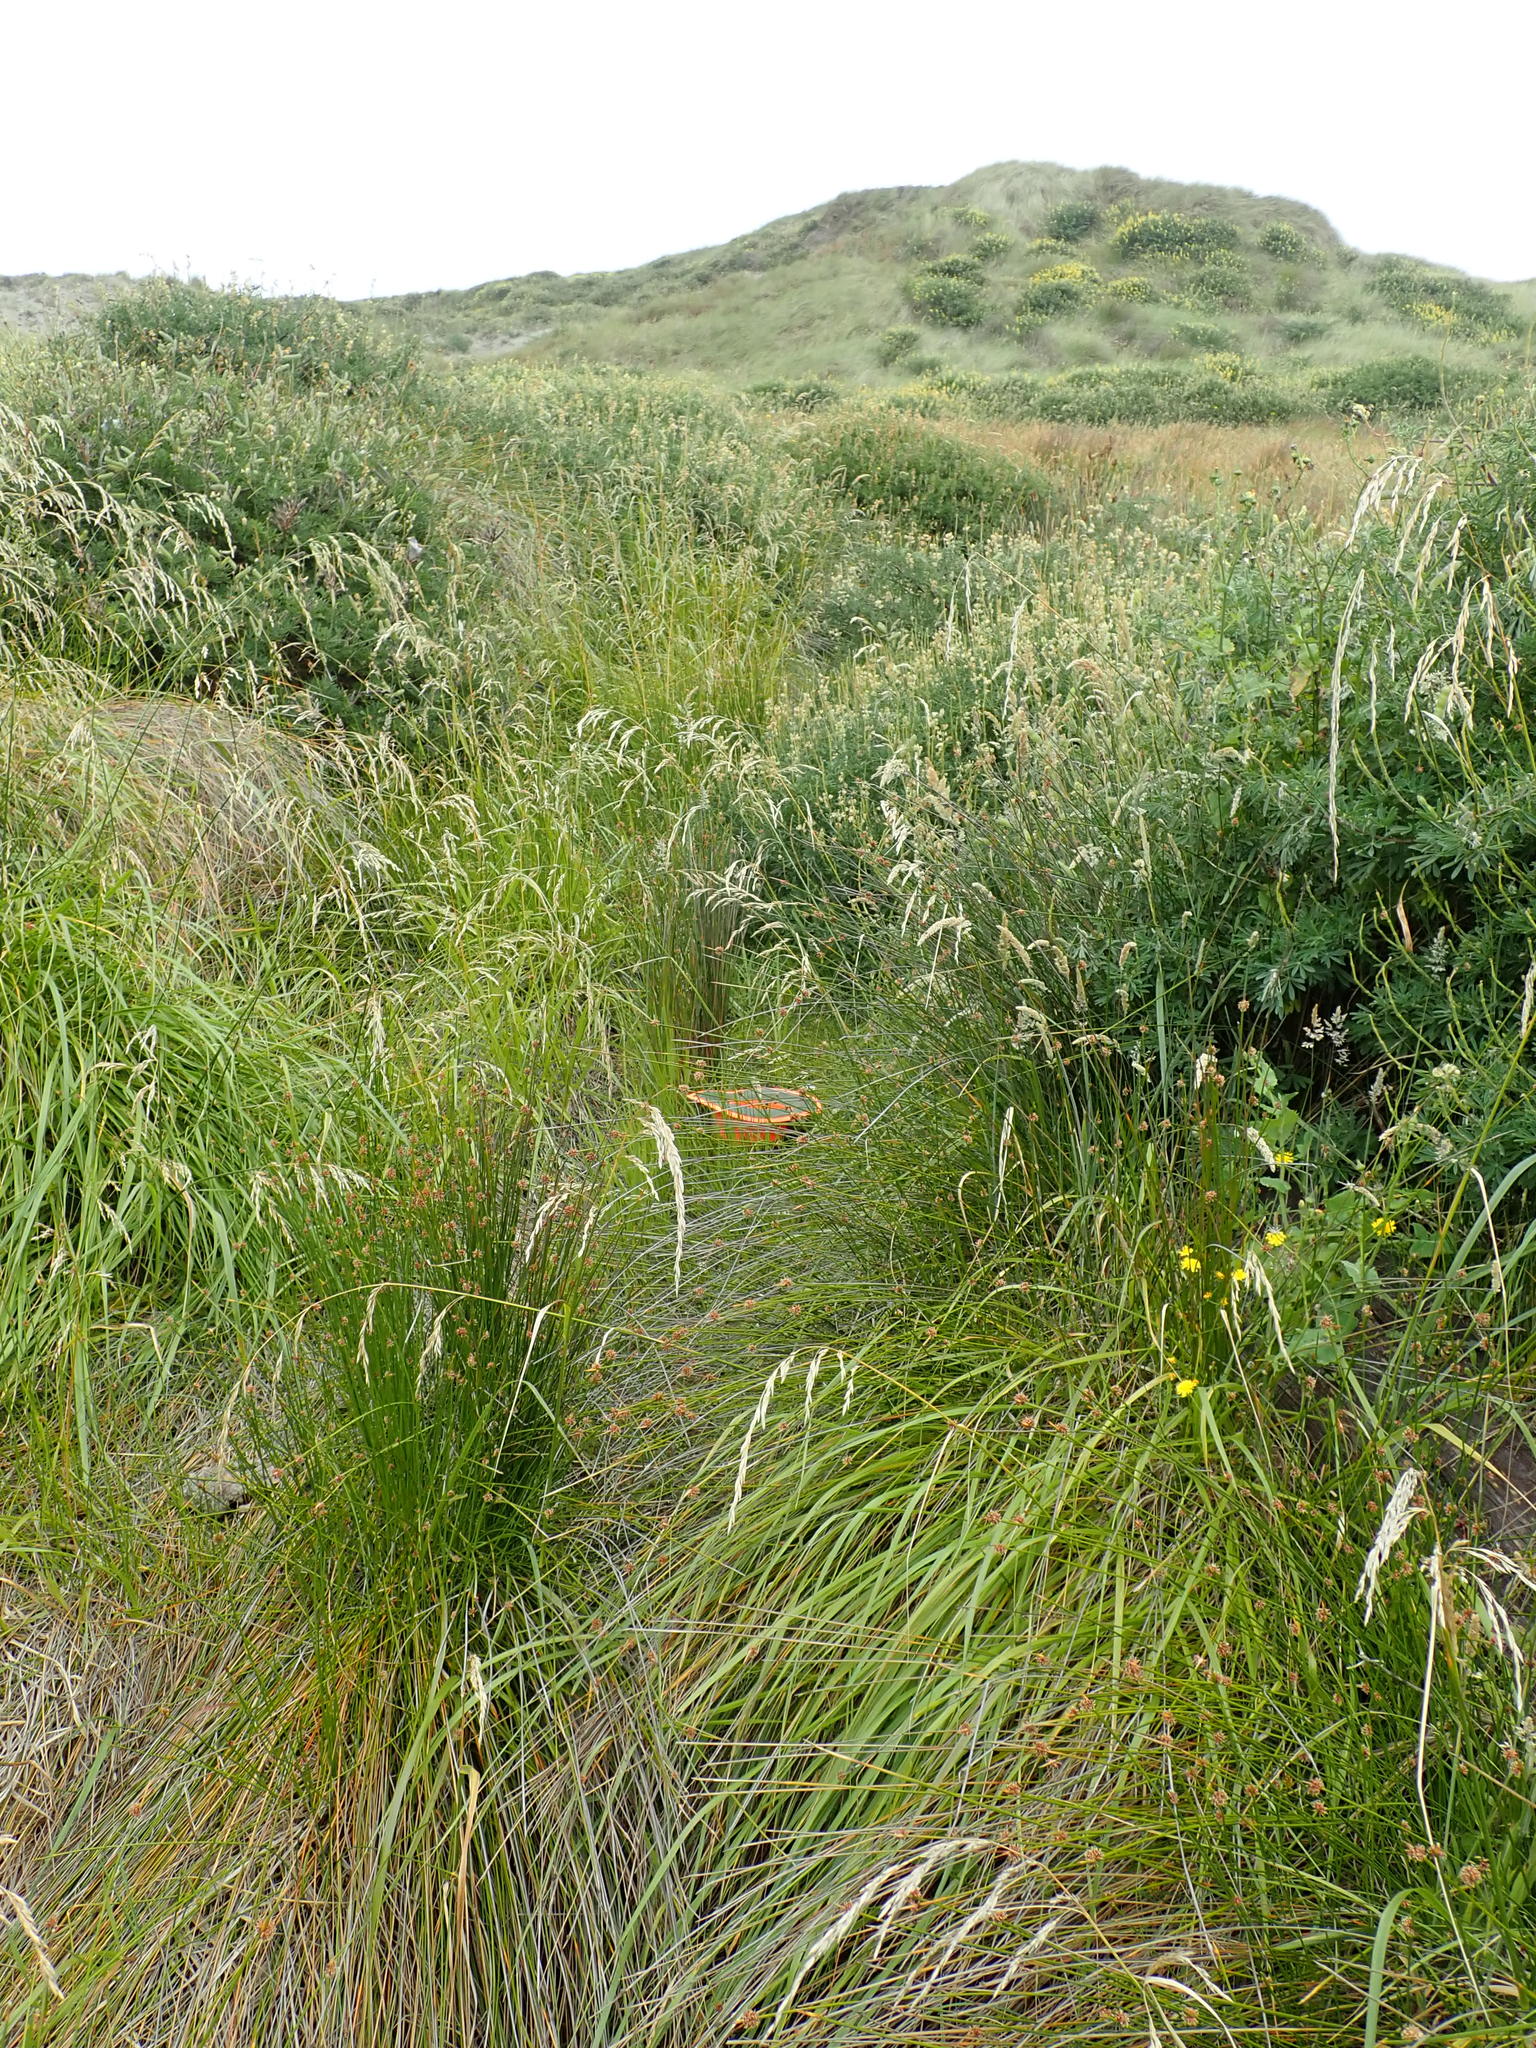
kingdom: Plantae
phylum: Tracheophyta
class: Liliopsida
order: Alismatales
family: Juncaginaceae
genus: Triglochin
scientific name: Triglochin striata
